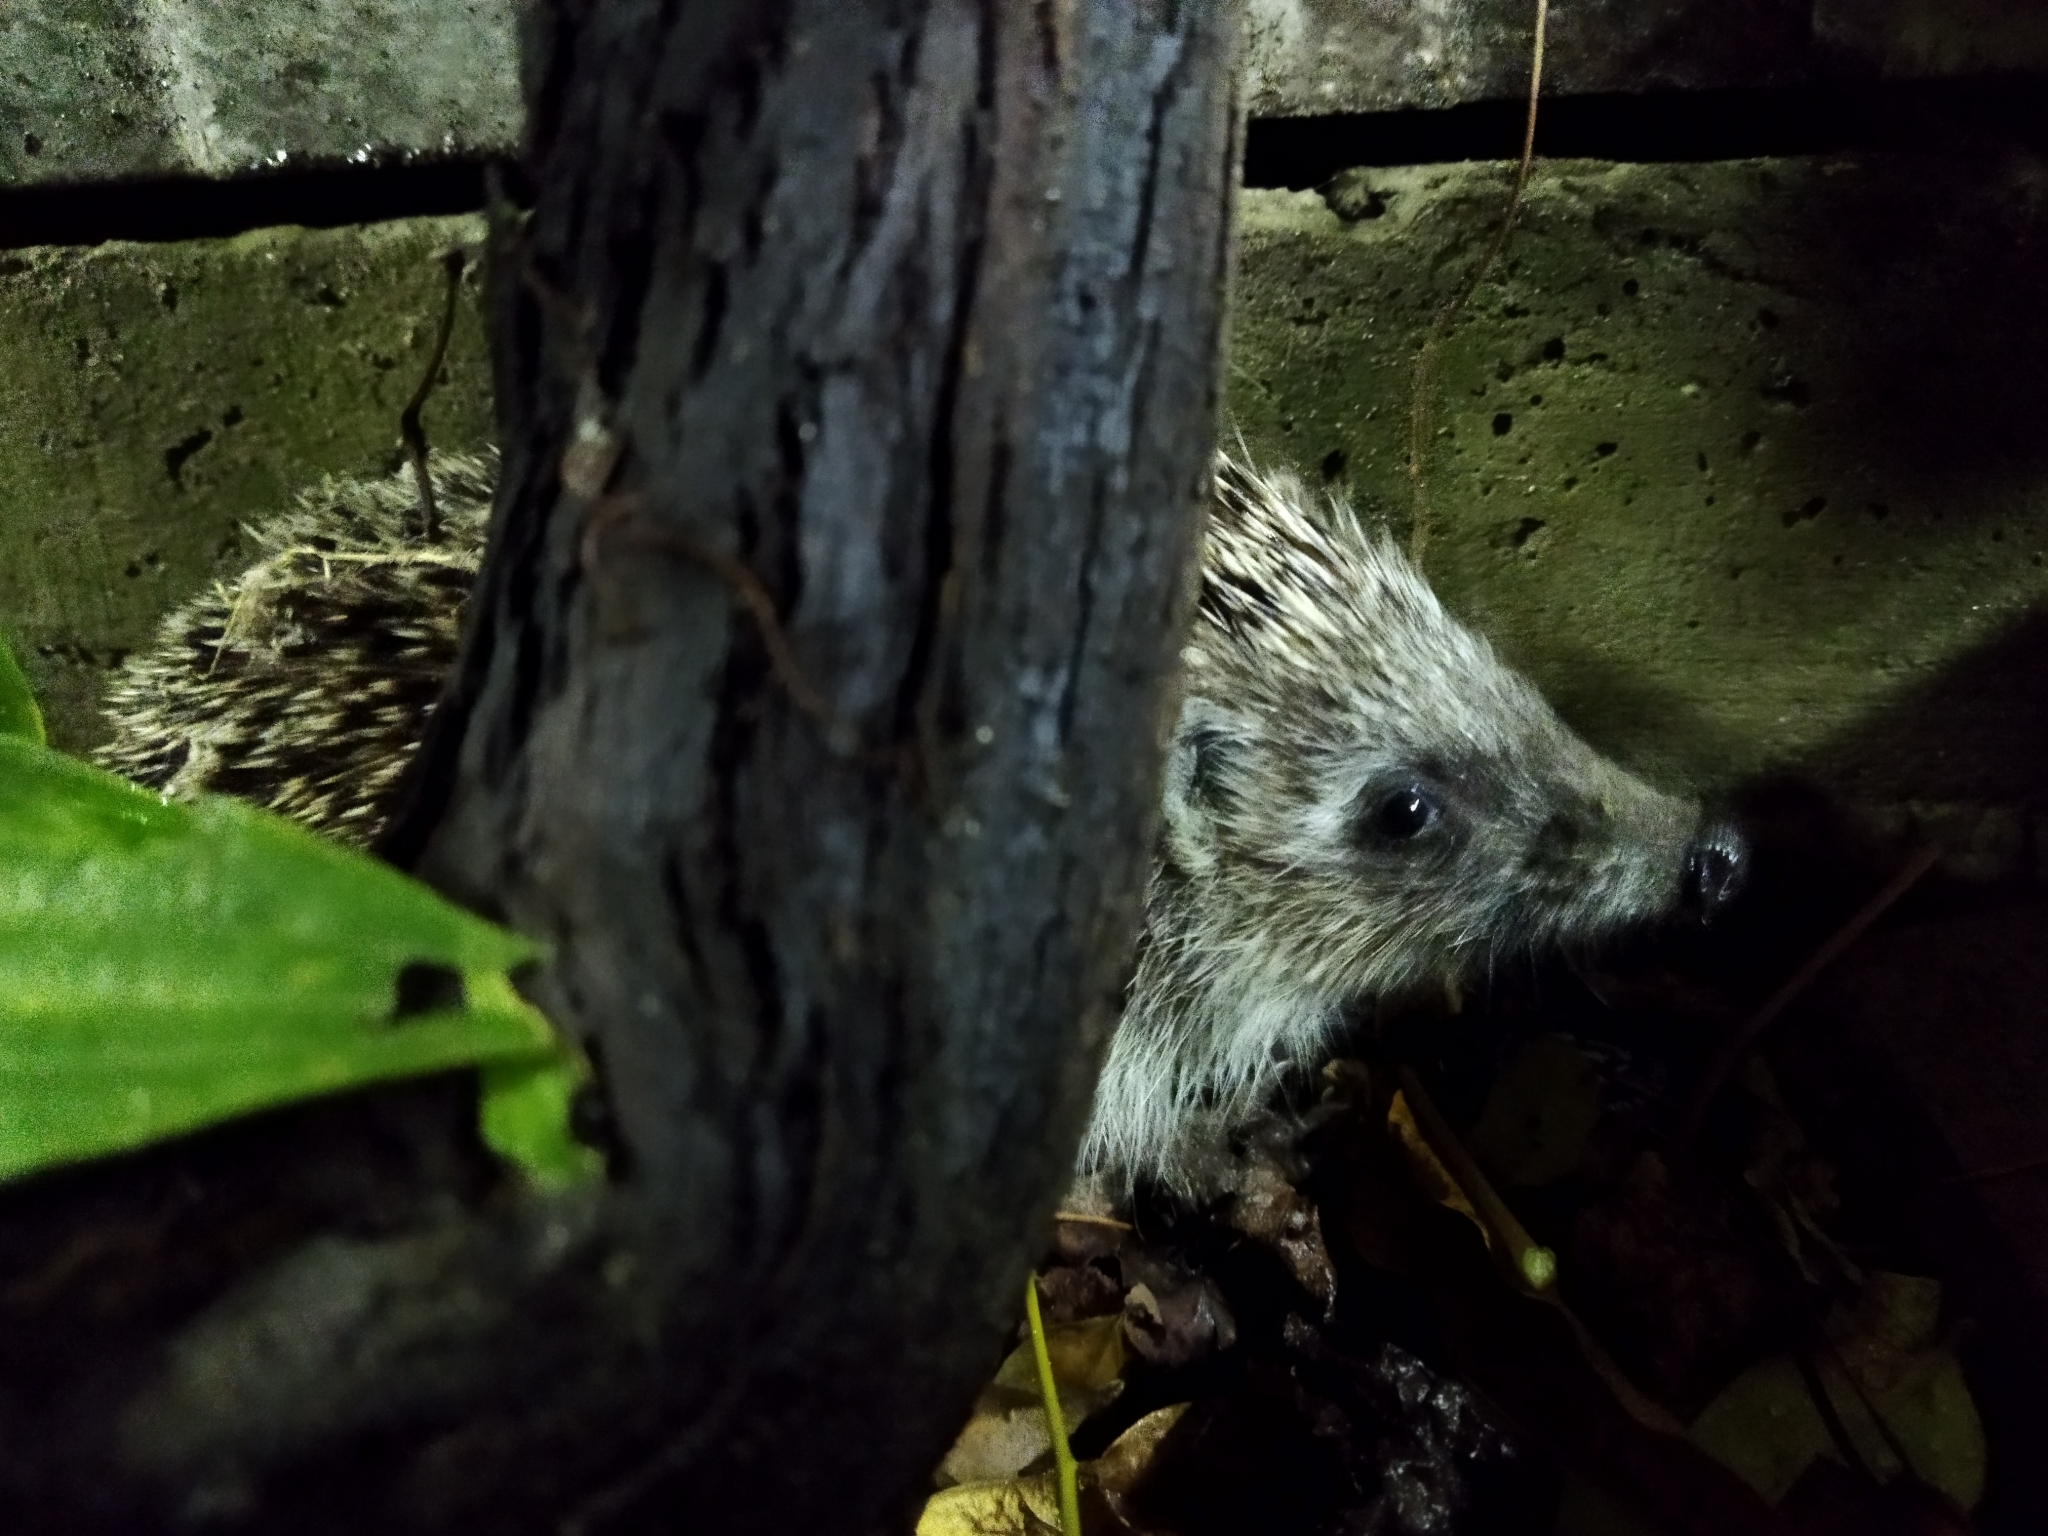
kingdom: Animalia
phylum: Chordata
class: Mammalia
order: Erinaceomorpha
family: Erinaceidae
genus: Erinaceus
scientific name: Erinaceus roumanicus
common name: Northern white-breasted hedgehog
